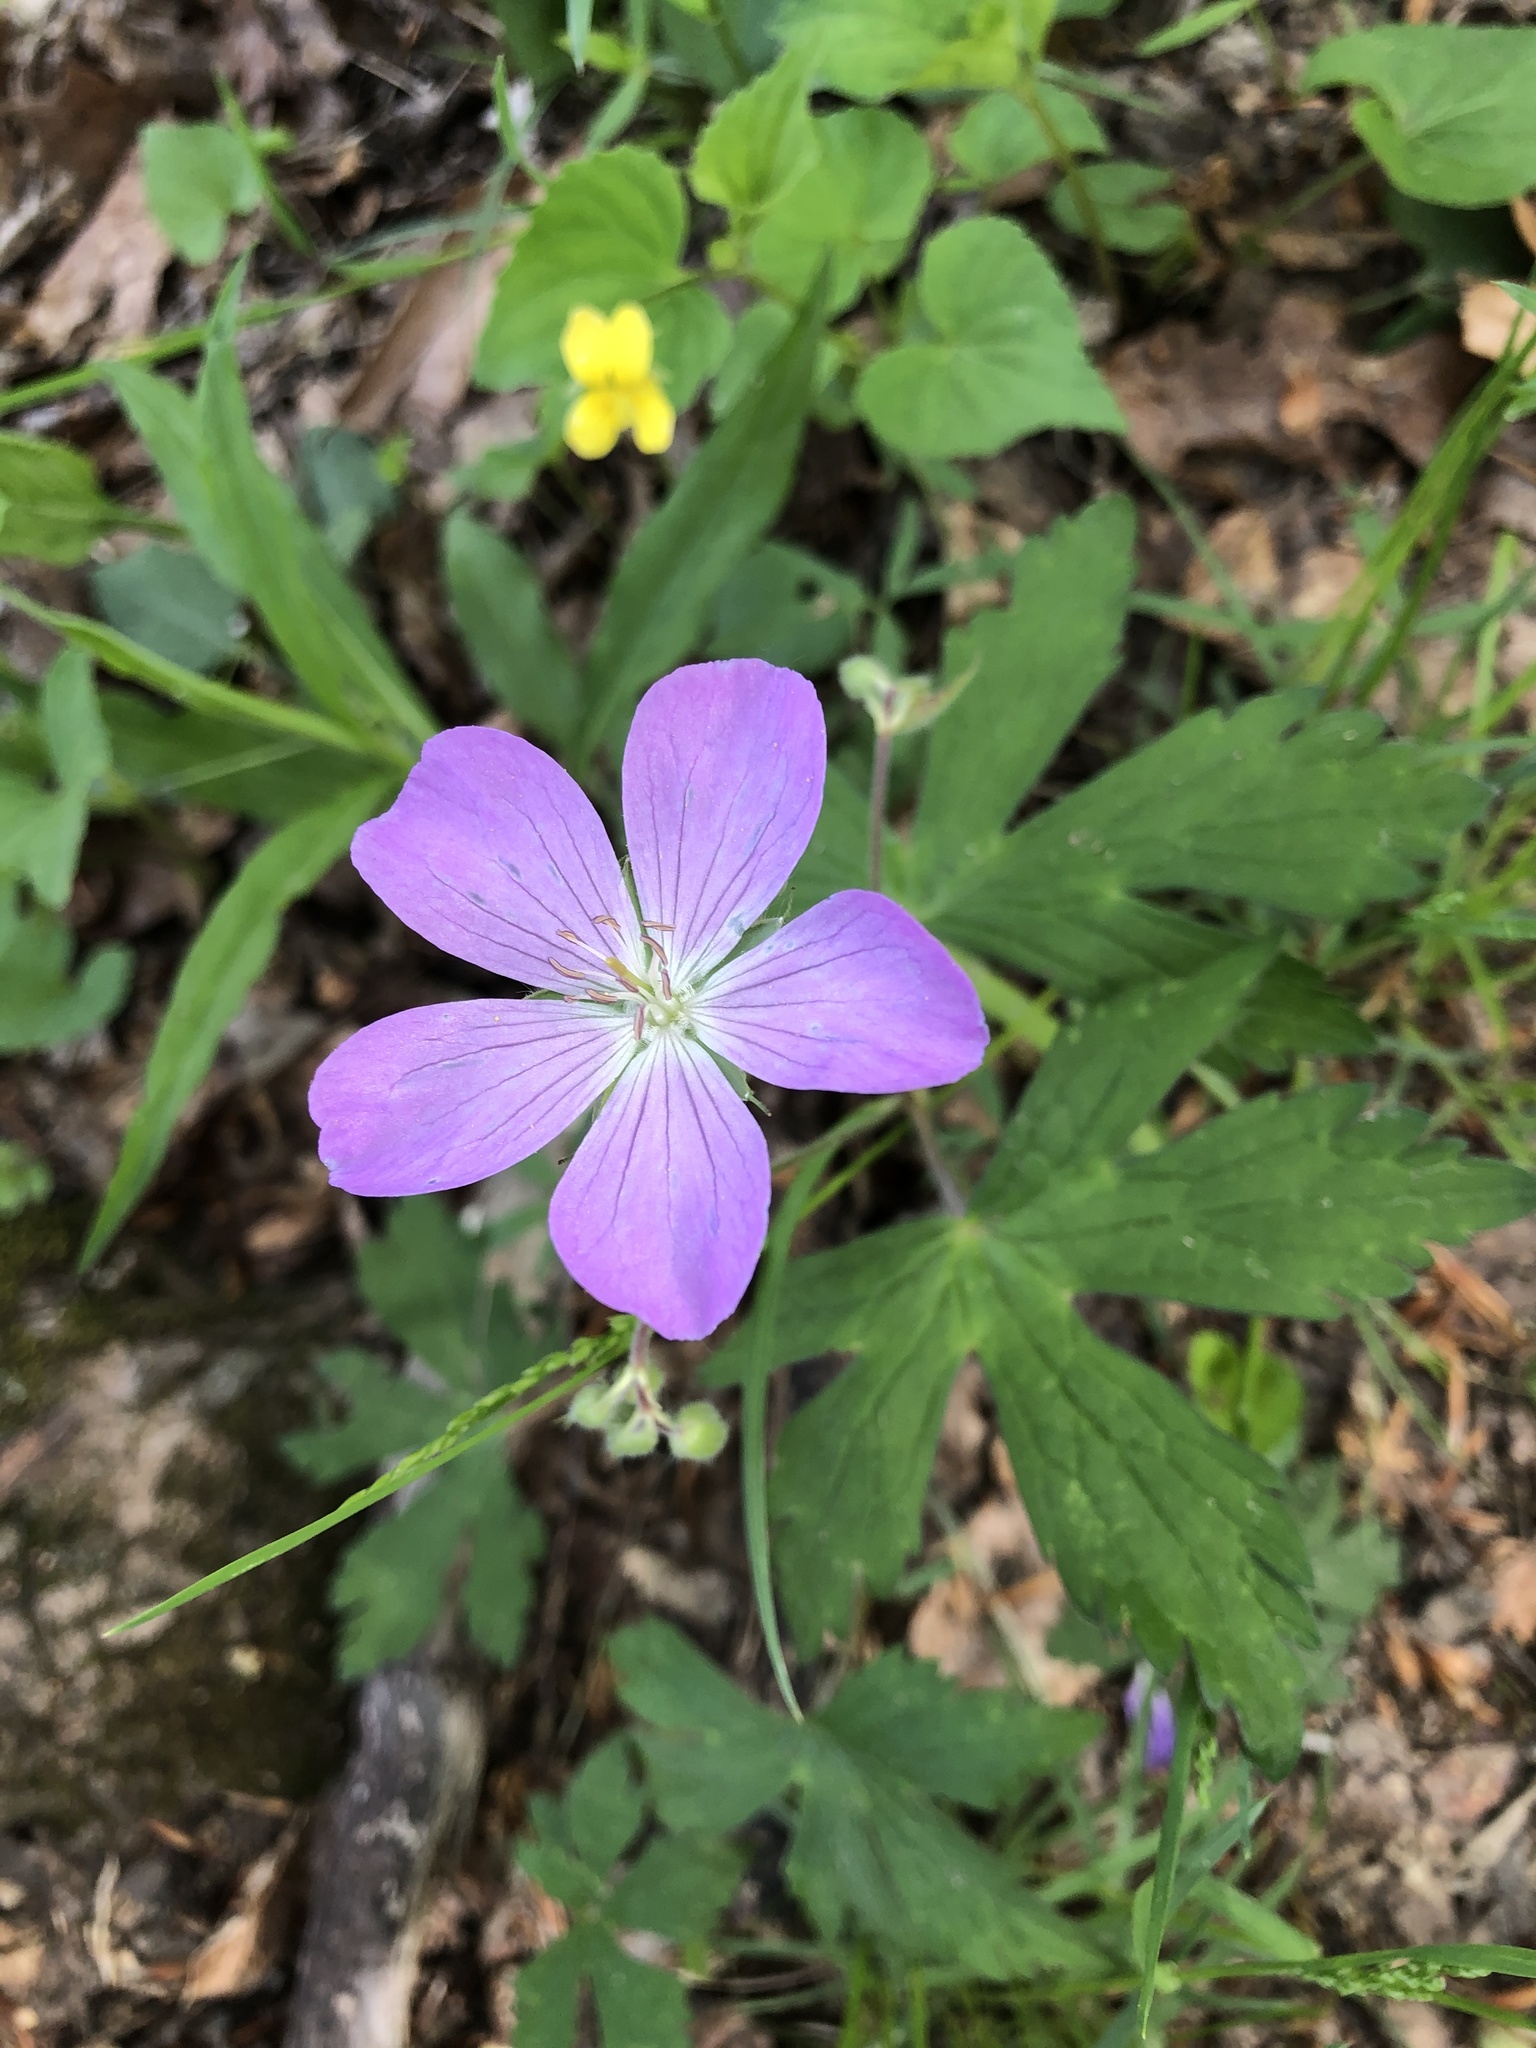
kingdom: Plantae
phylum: Tracheophyta
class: Magnoliopsida
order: Geraniales
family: Geraniaceae
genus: Geranium
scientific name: Geranium maculatum
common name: Spotted geranium
